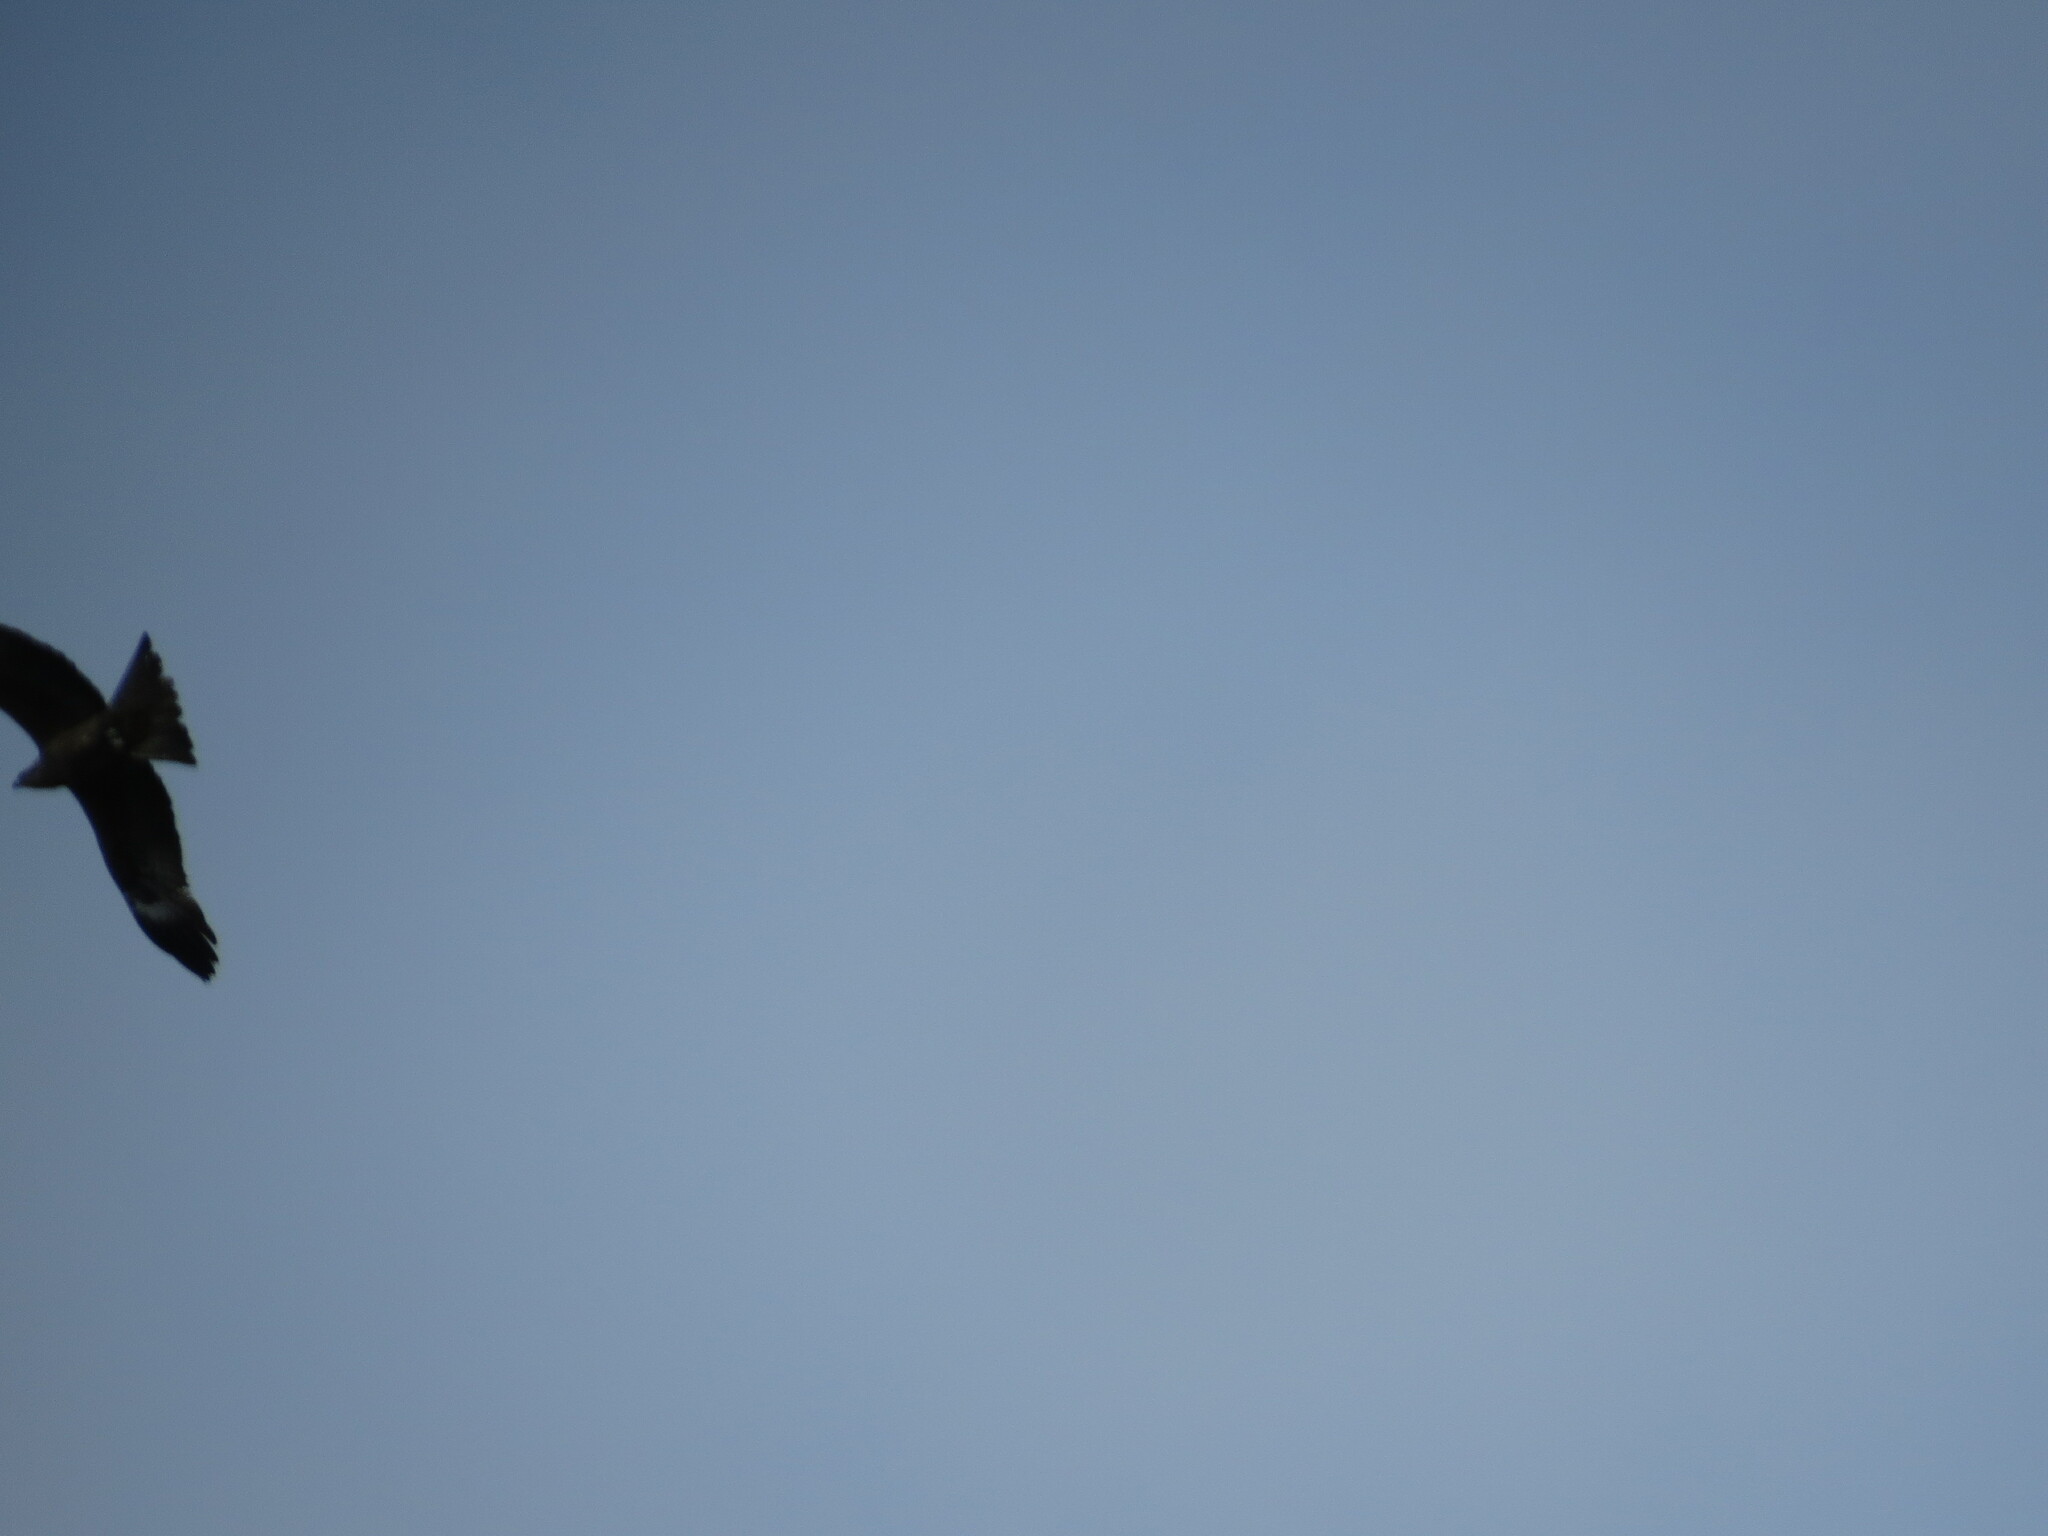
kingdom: Animalia
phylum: Chordata
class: Aves
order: Accipitriformes
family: Accipitridae
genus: Milvus
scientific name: Milvus migrans
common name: Black kite
